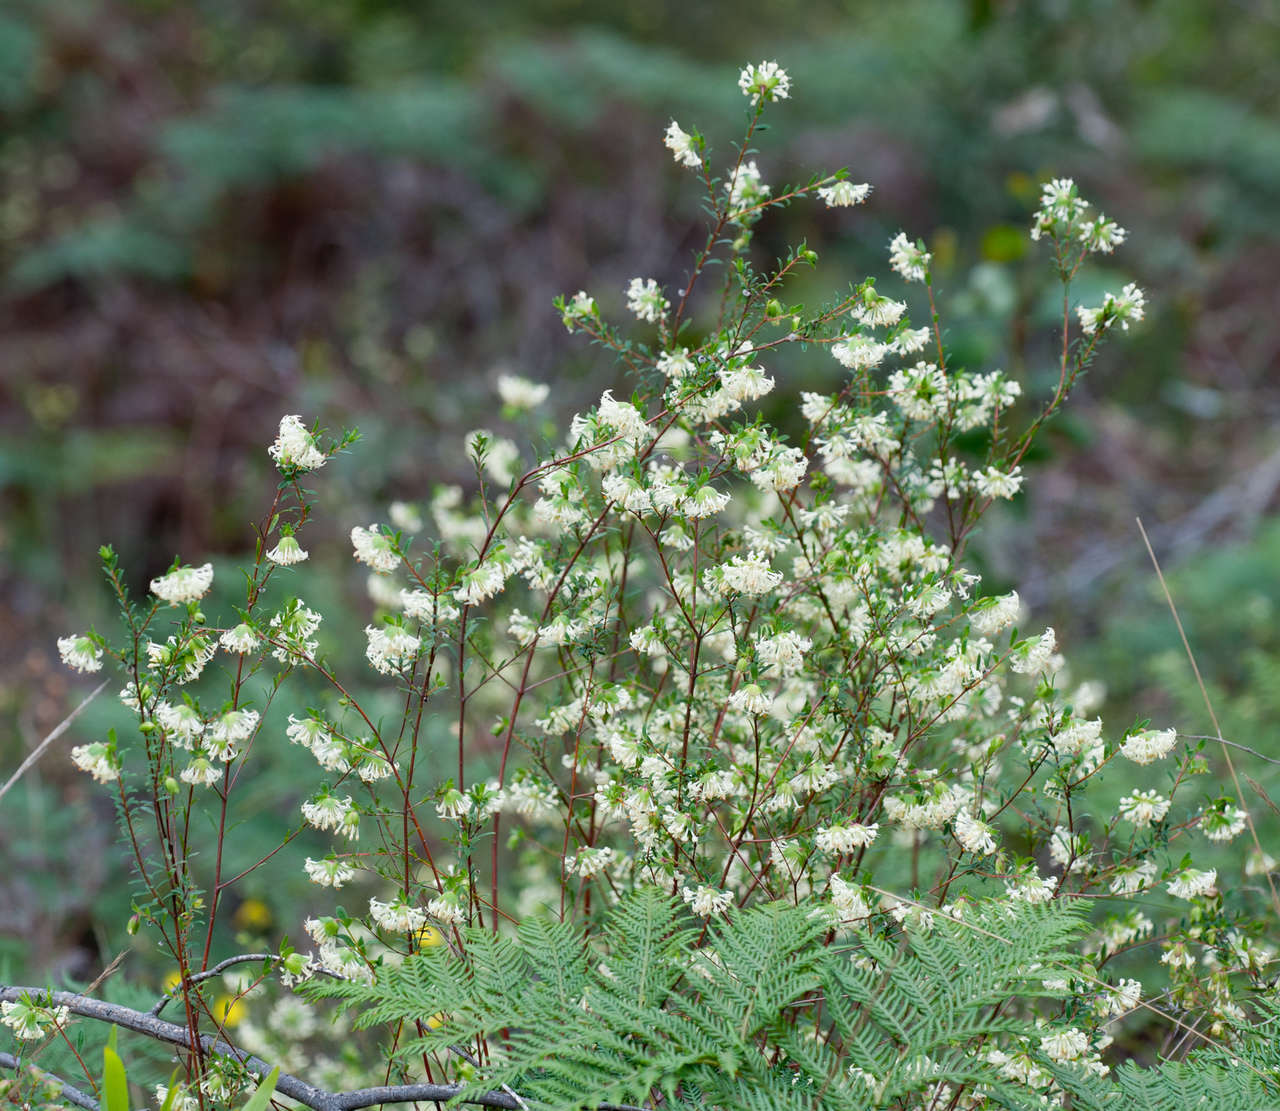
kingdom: Plantae
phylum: Tracheophyta
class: Magnoliopsida
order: Malvales
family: Thymelaeaceae
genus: Pimelea
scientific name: Pimelea linifolia
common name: Queen-of-the-bush
